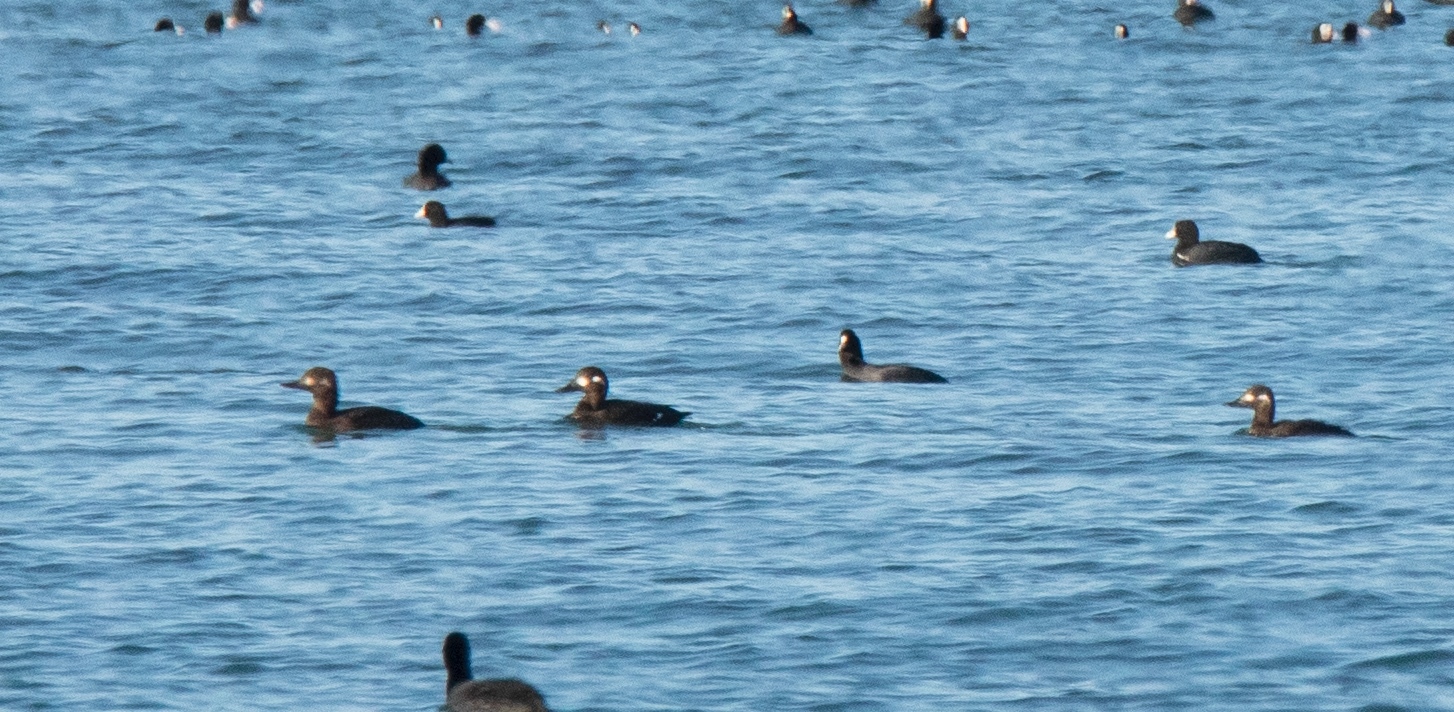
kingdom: Animalia
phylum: Chordata
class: Aves
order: Anseriformes
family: Anatidae
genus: Melanitta
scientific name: Melanitta fusca
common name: Velvet scoter
